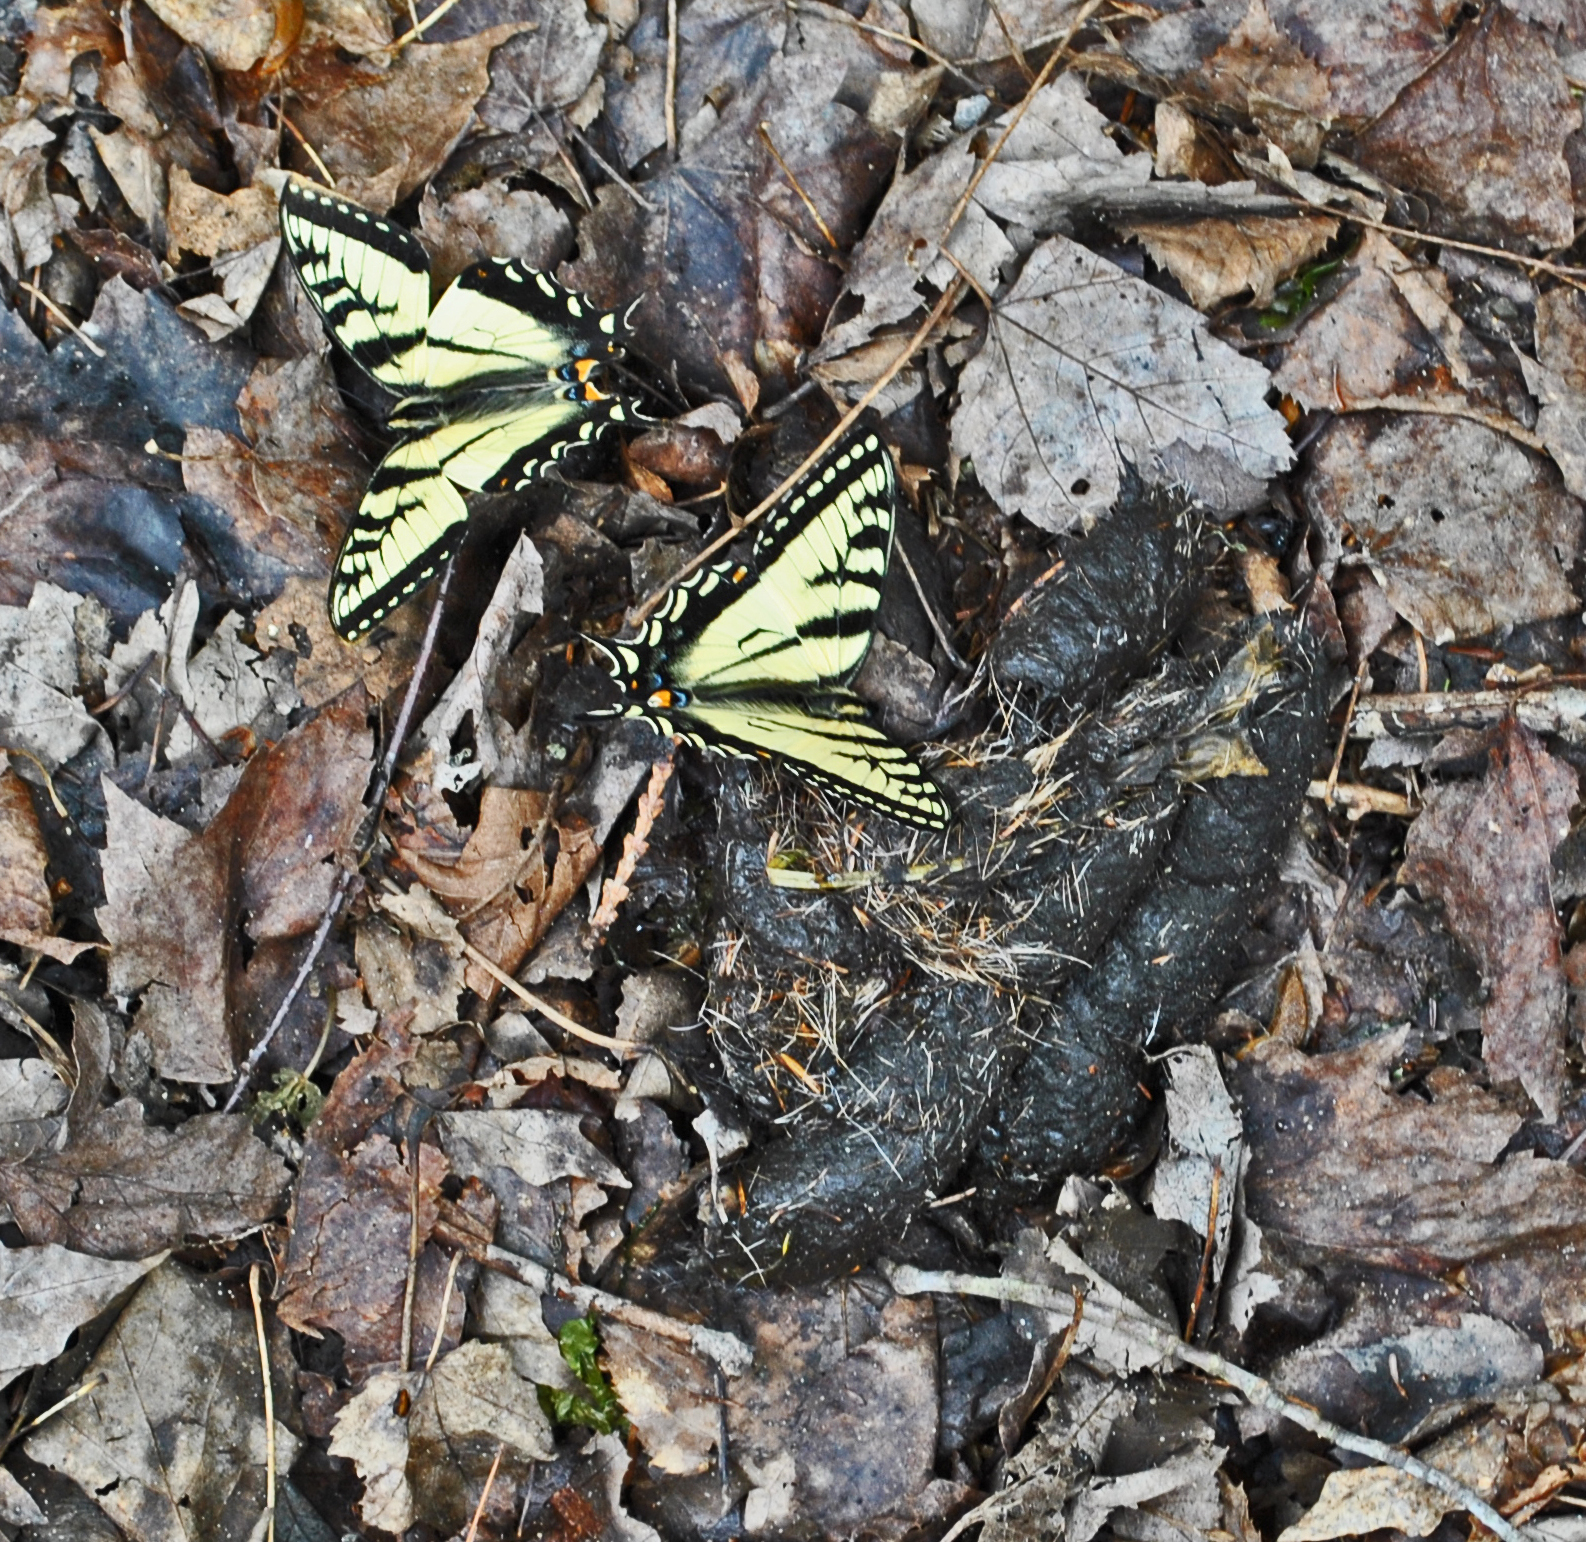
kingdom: Animalia
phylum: Arthropoda
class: Insecta
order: Lepidoptera
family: Papilionidae
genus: Papilio
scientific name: Papilio canadensis
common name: Canadian tiger swallowtail
